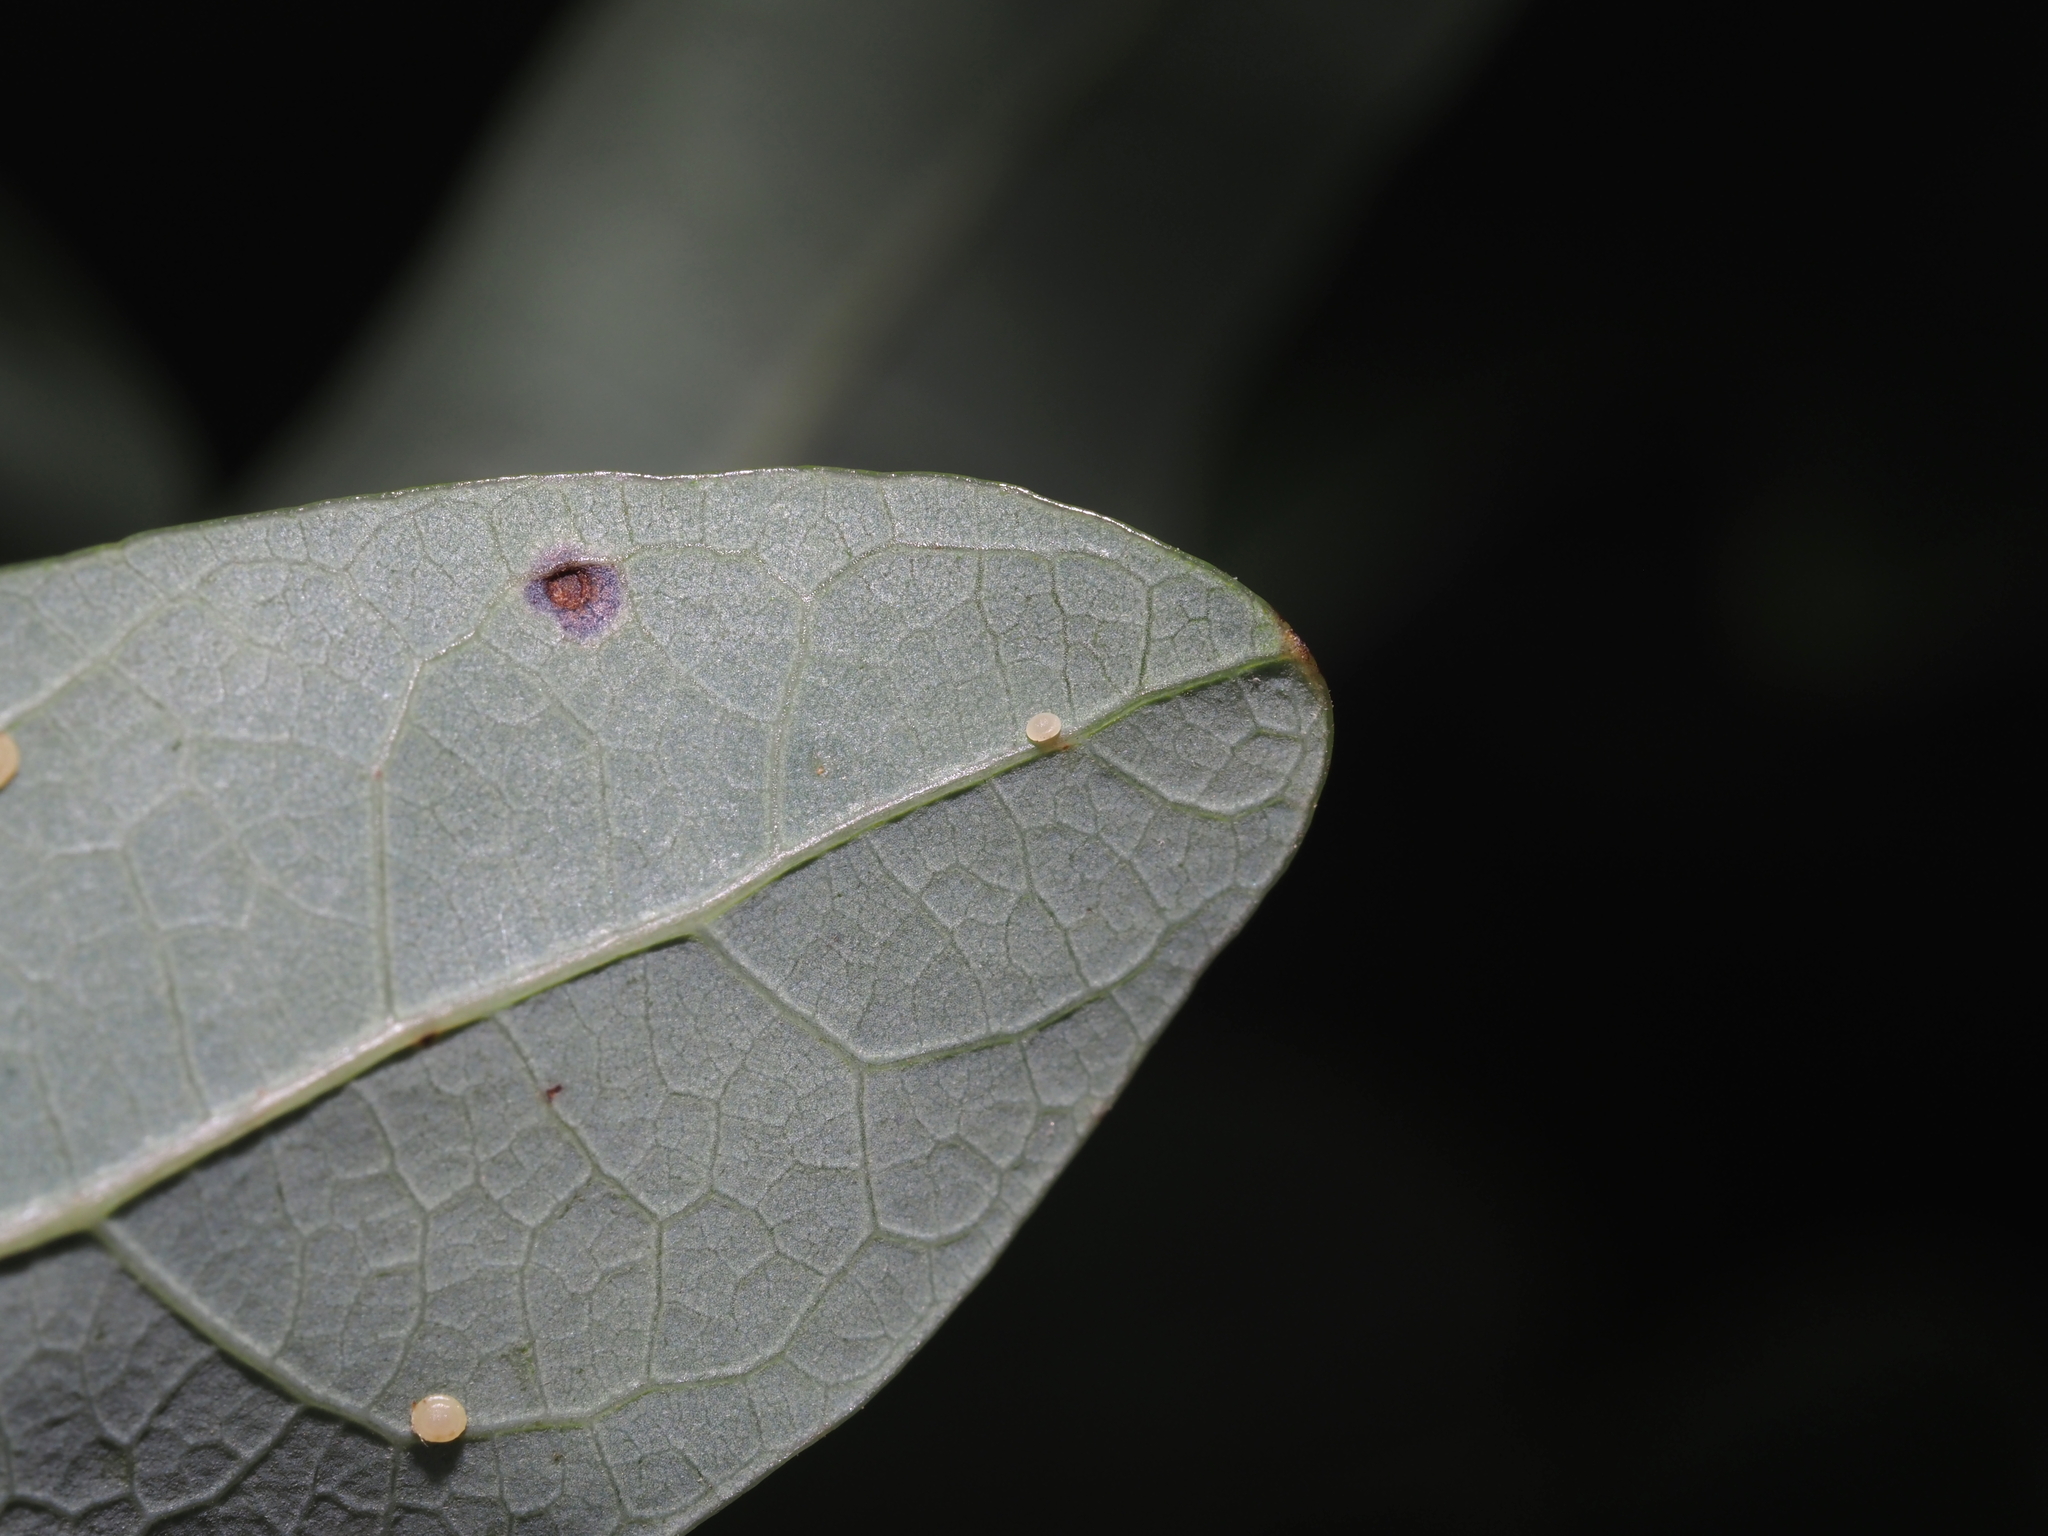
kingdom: Animalia
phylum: Arthropoda
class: Insecta
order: Hymenoptera
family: Cynipidae
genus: Neuroterus
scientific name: Neuroterus
